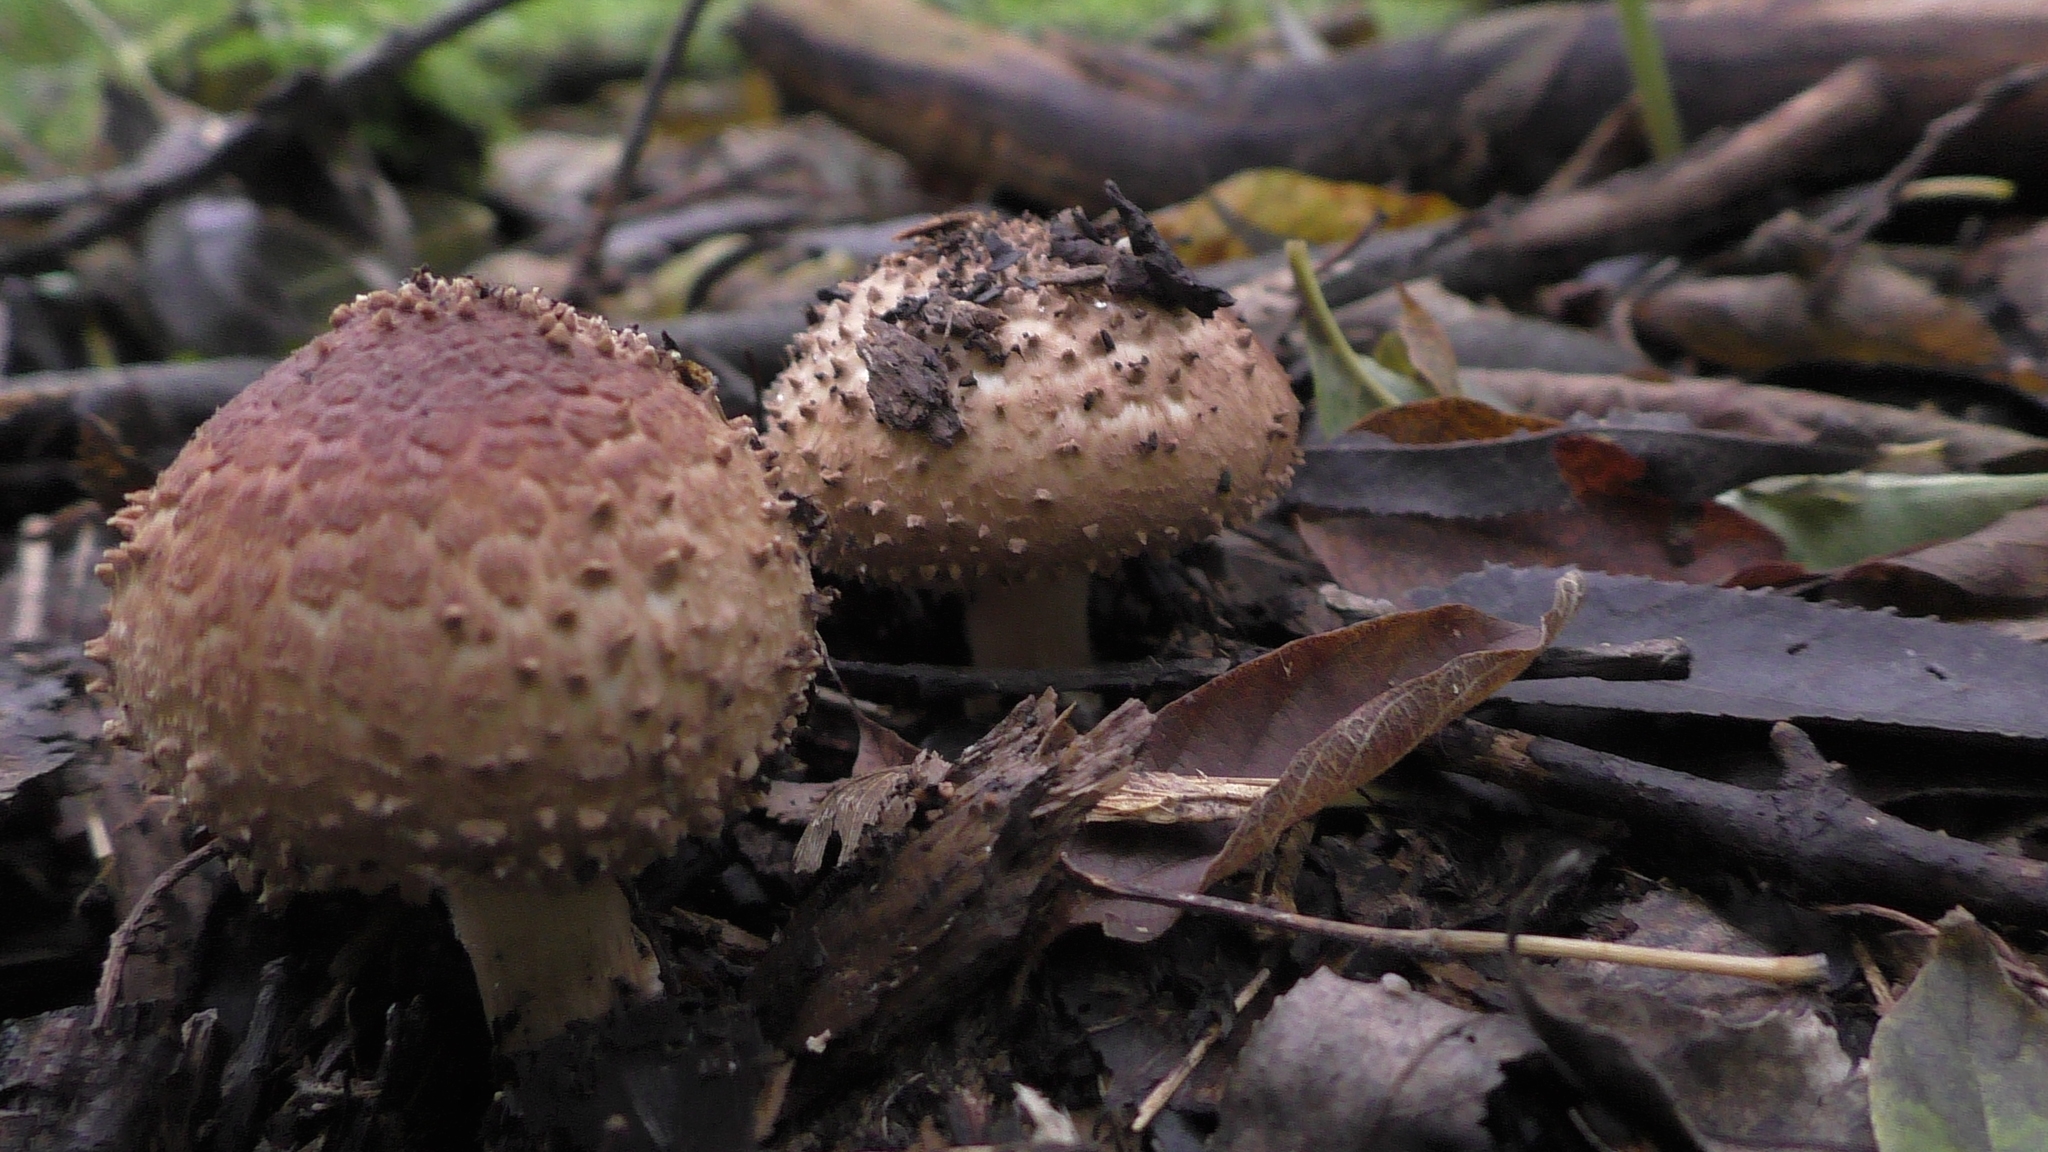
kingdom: Fungi
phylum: Basidiomycota
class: Agaricomycetes
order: Agaricales
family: Agaricaceae
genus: Echinoderma
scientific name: Echinoderma asperum
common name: Freckled dapperling
